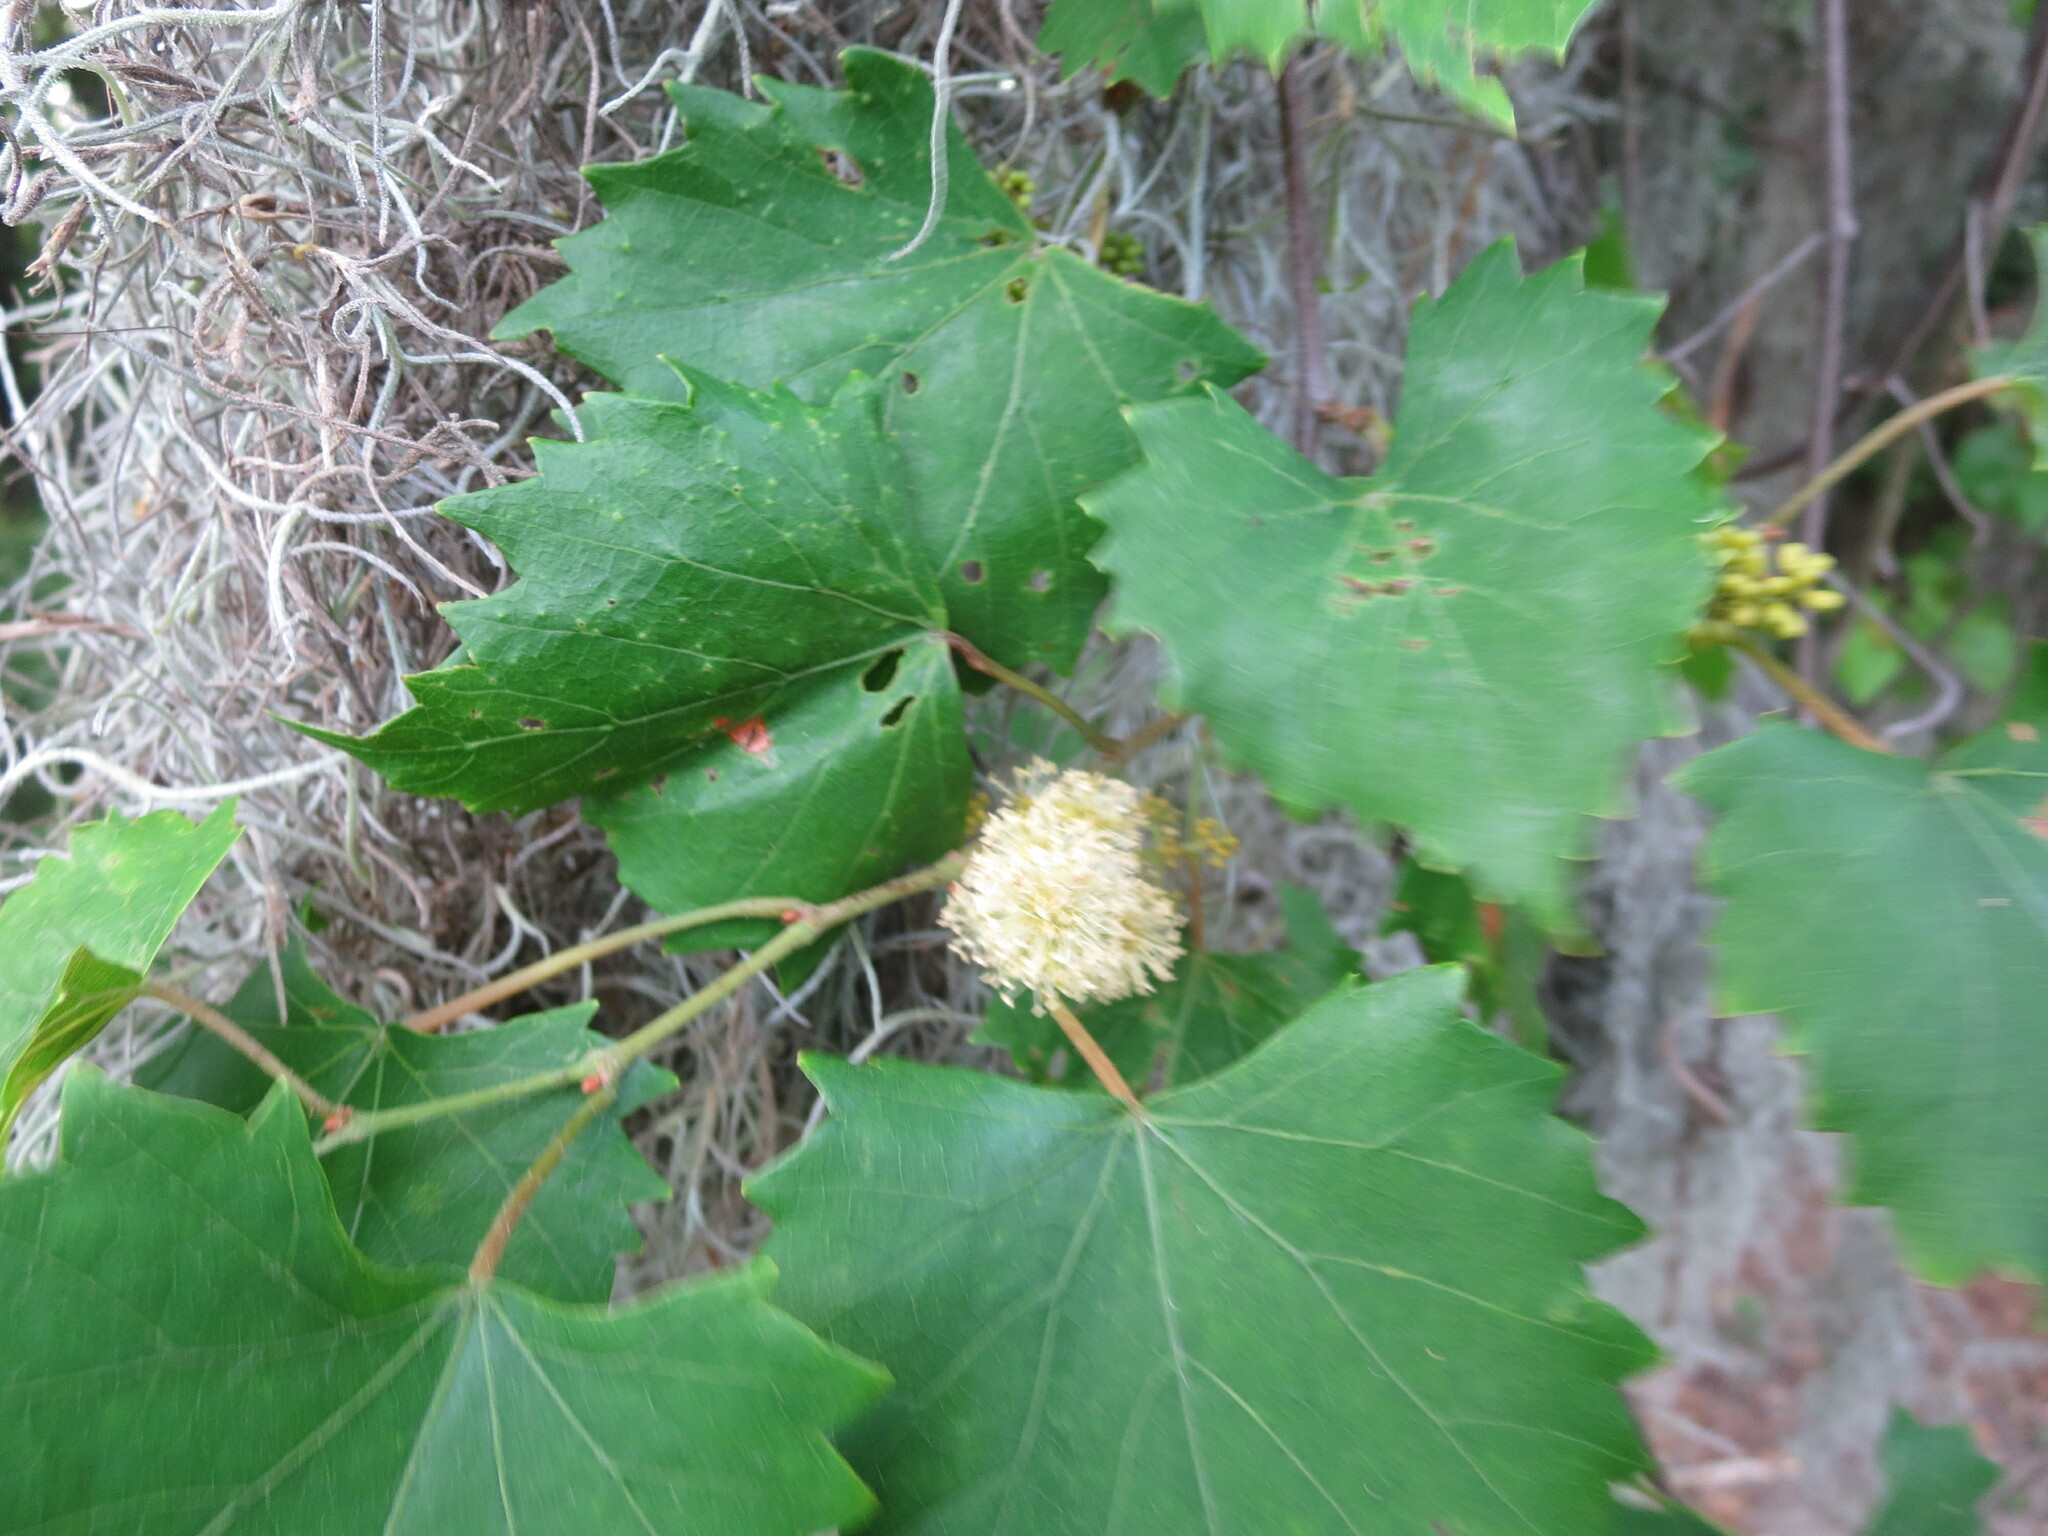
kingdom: Plantae
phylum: Tracheophyta
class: Magnoliopsida
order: Vitales
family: Vitaceae
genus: Vitis
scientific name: Vitis rotundifolia
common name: Muscadine grape
